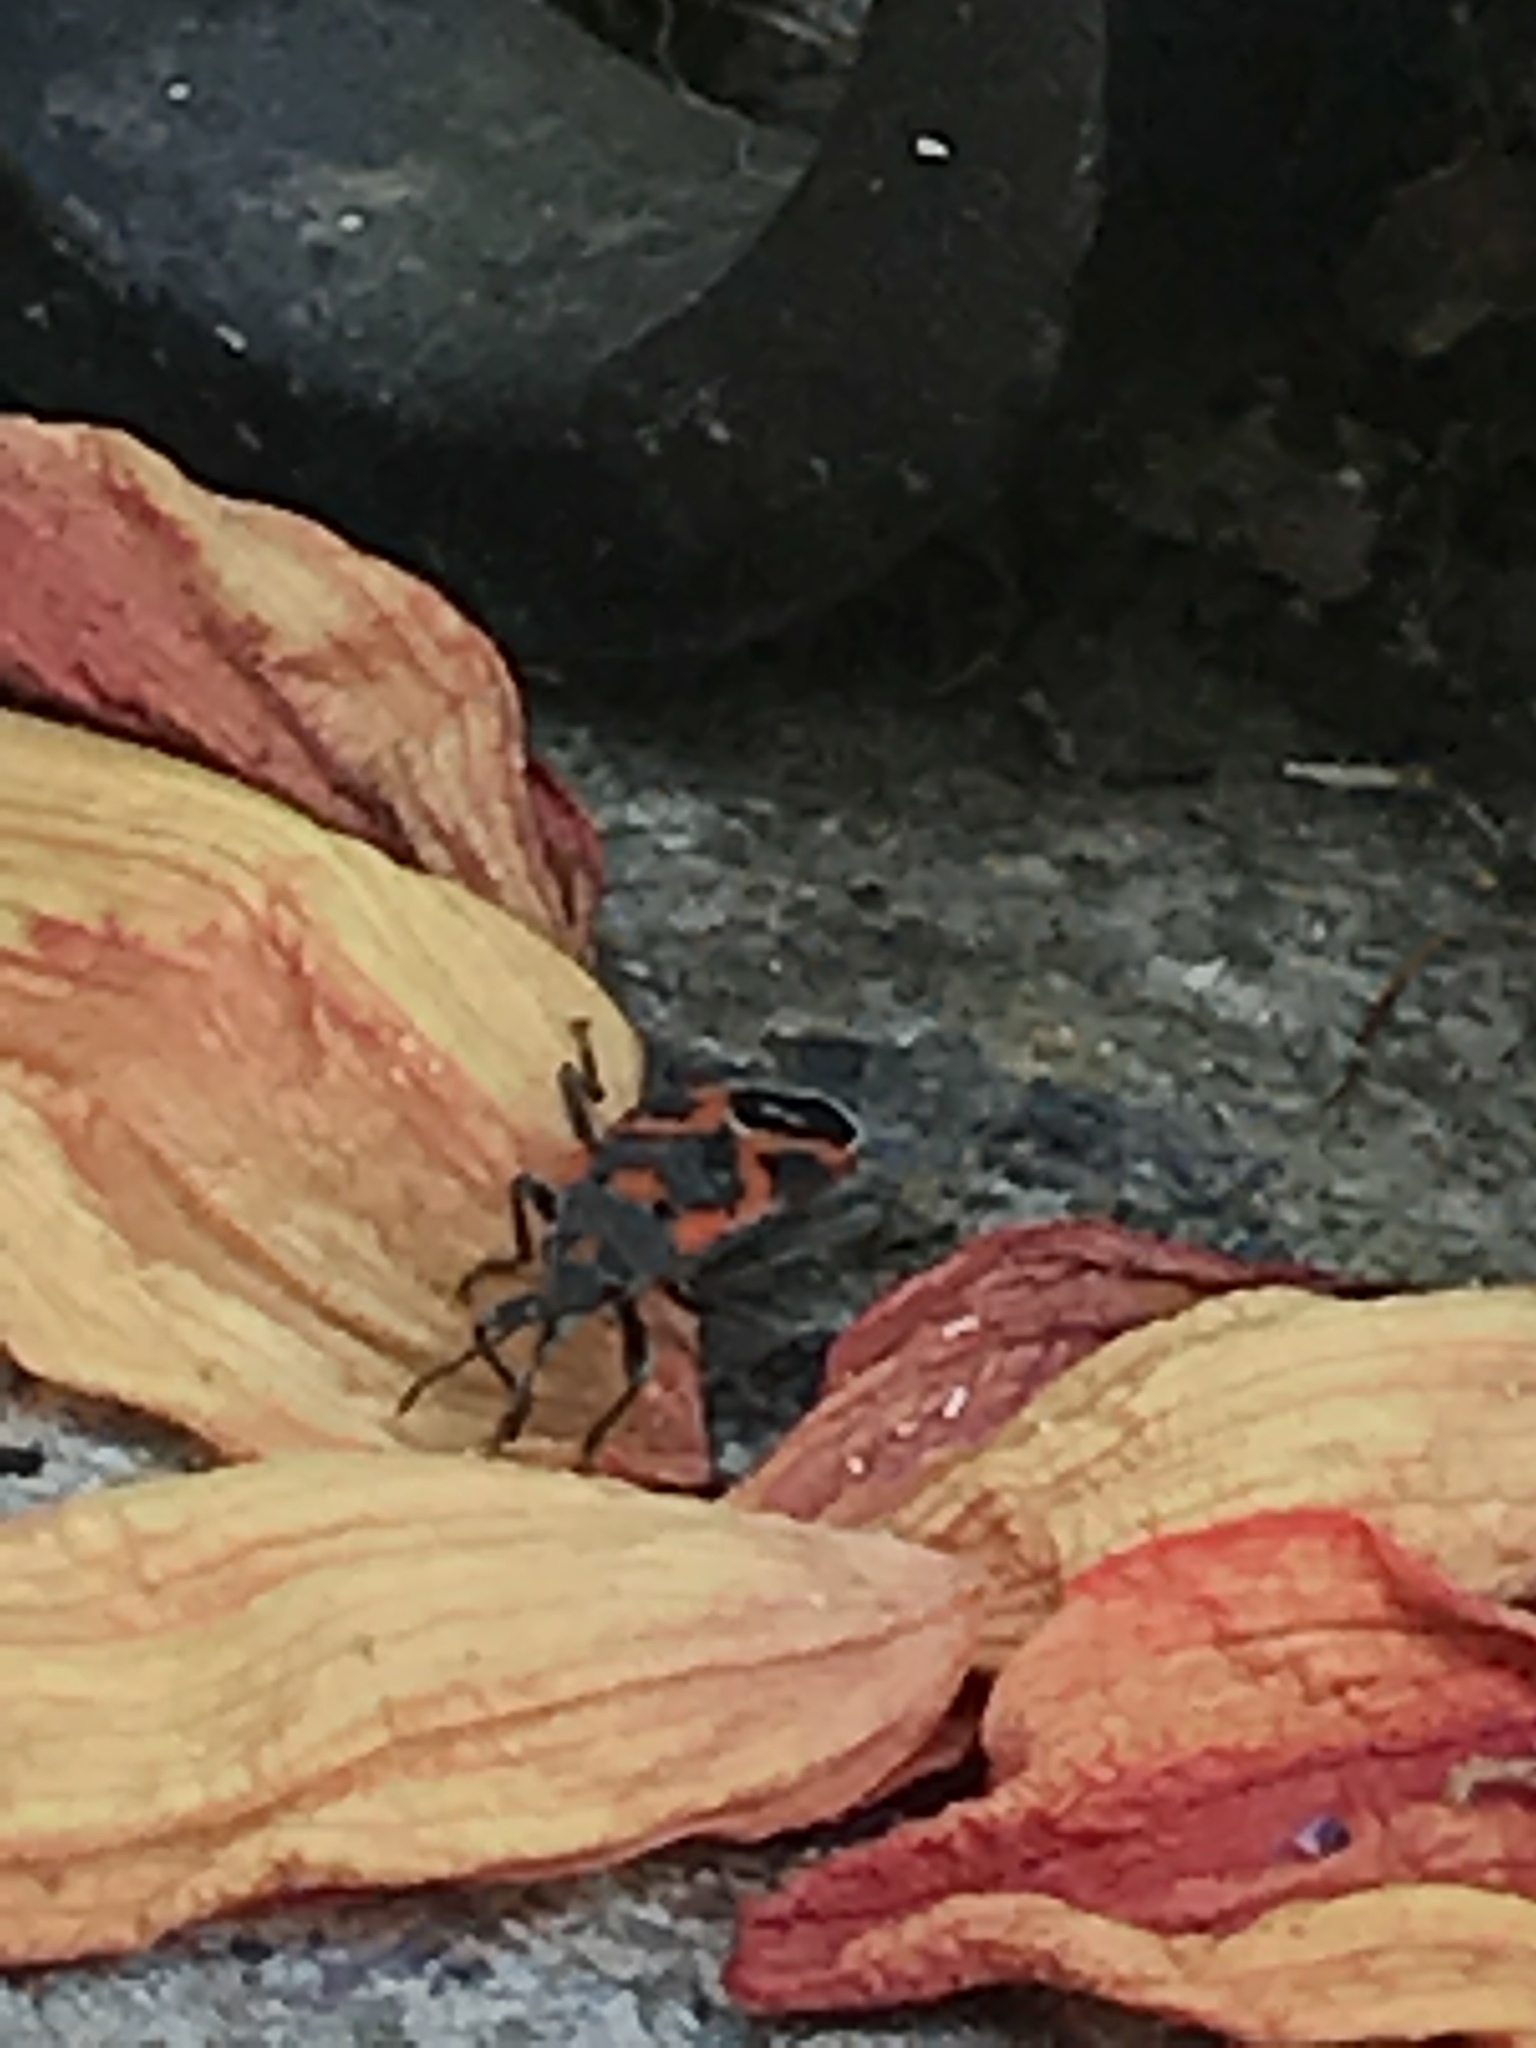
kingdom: Animalia
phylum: Arthropoda
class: Insecta
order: Hemiptera
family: Lygaeidae
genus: Lygaeus
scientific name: Lygaeus kalmii
